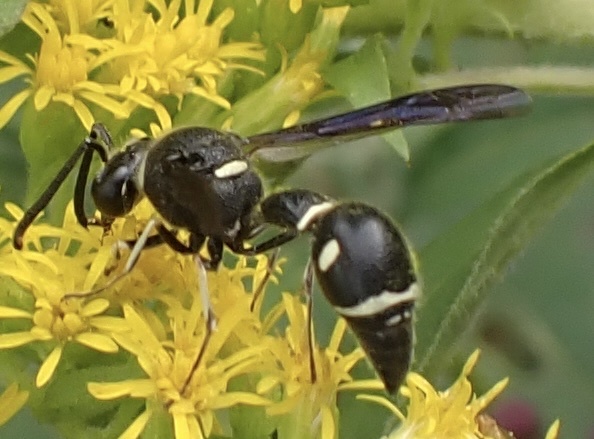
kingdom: Animalia
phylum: Arthropoda
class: Insecta
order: Hymenoptera
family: Vespidae
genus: Eumenes
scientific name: Eumenes fraternus
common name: Fraternal potter wasp
